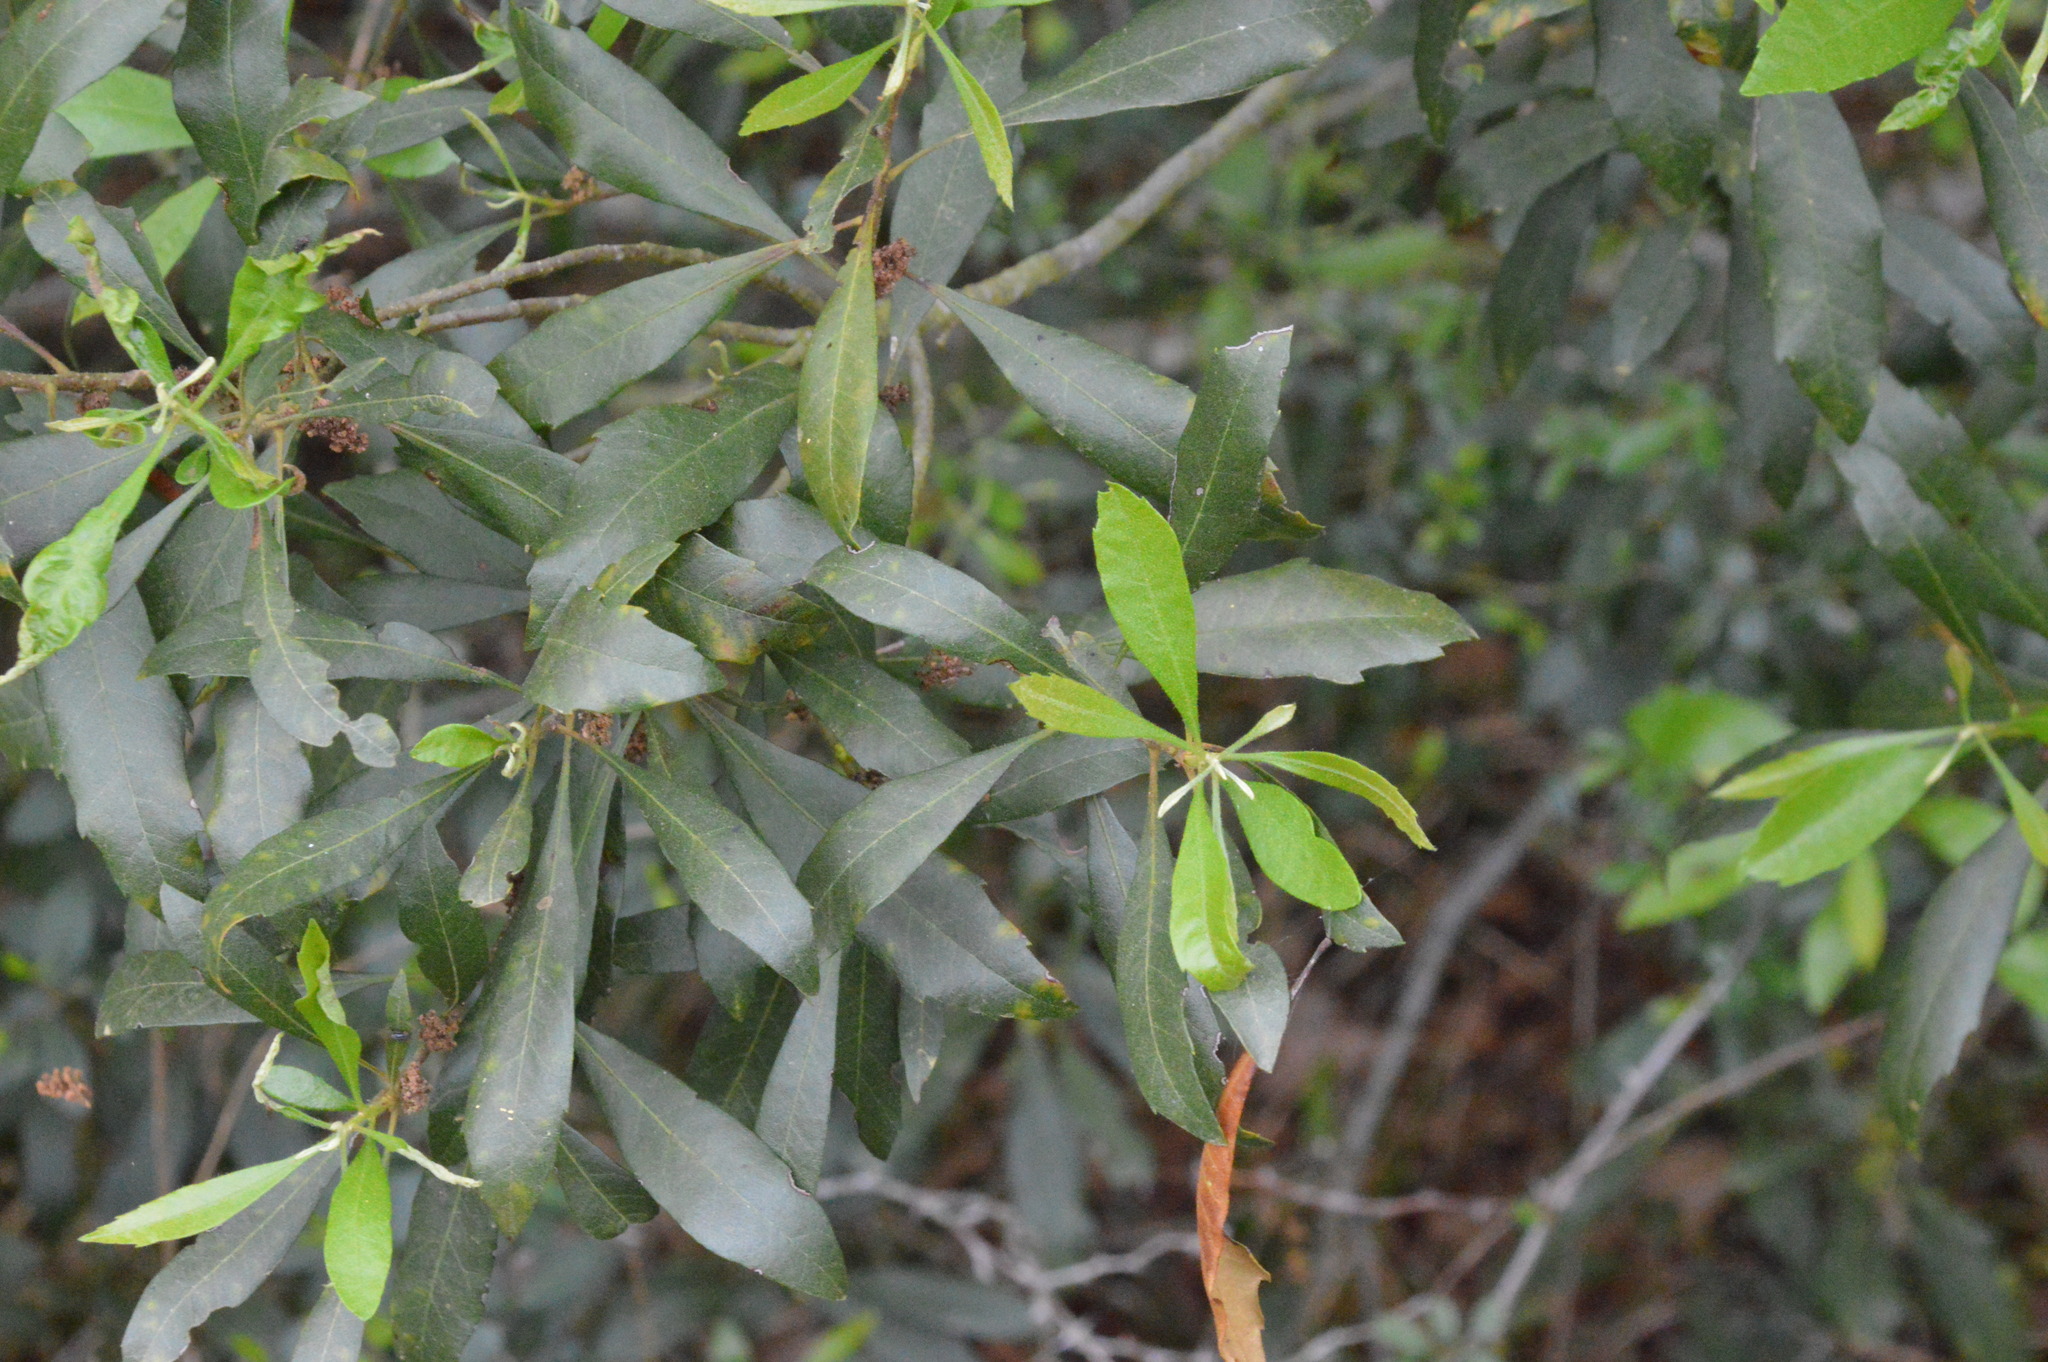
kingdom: Plantae
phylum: Tracheophyta
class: Magnoliopsida
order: Fagales
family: Myricaceae
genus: Morella
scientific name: Morella cerifera
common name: Wax myrtle
